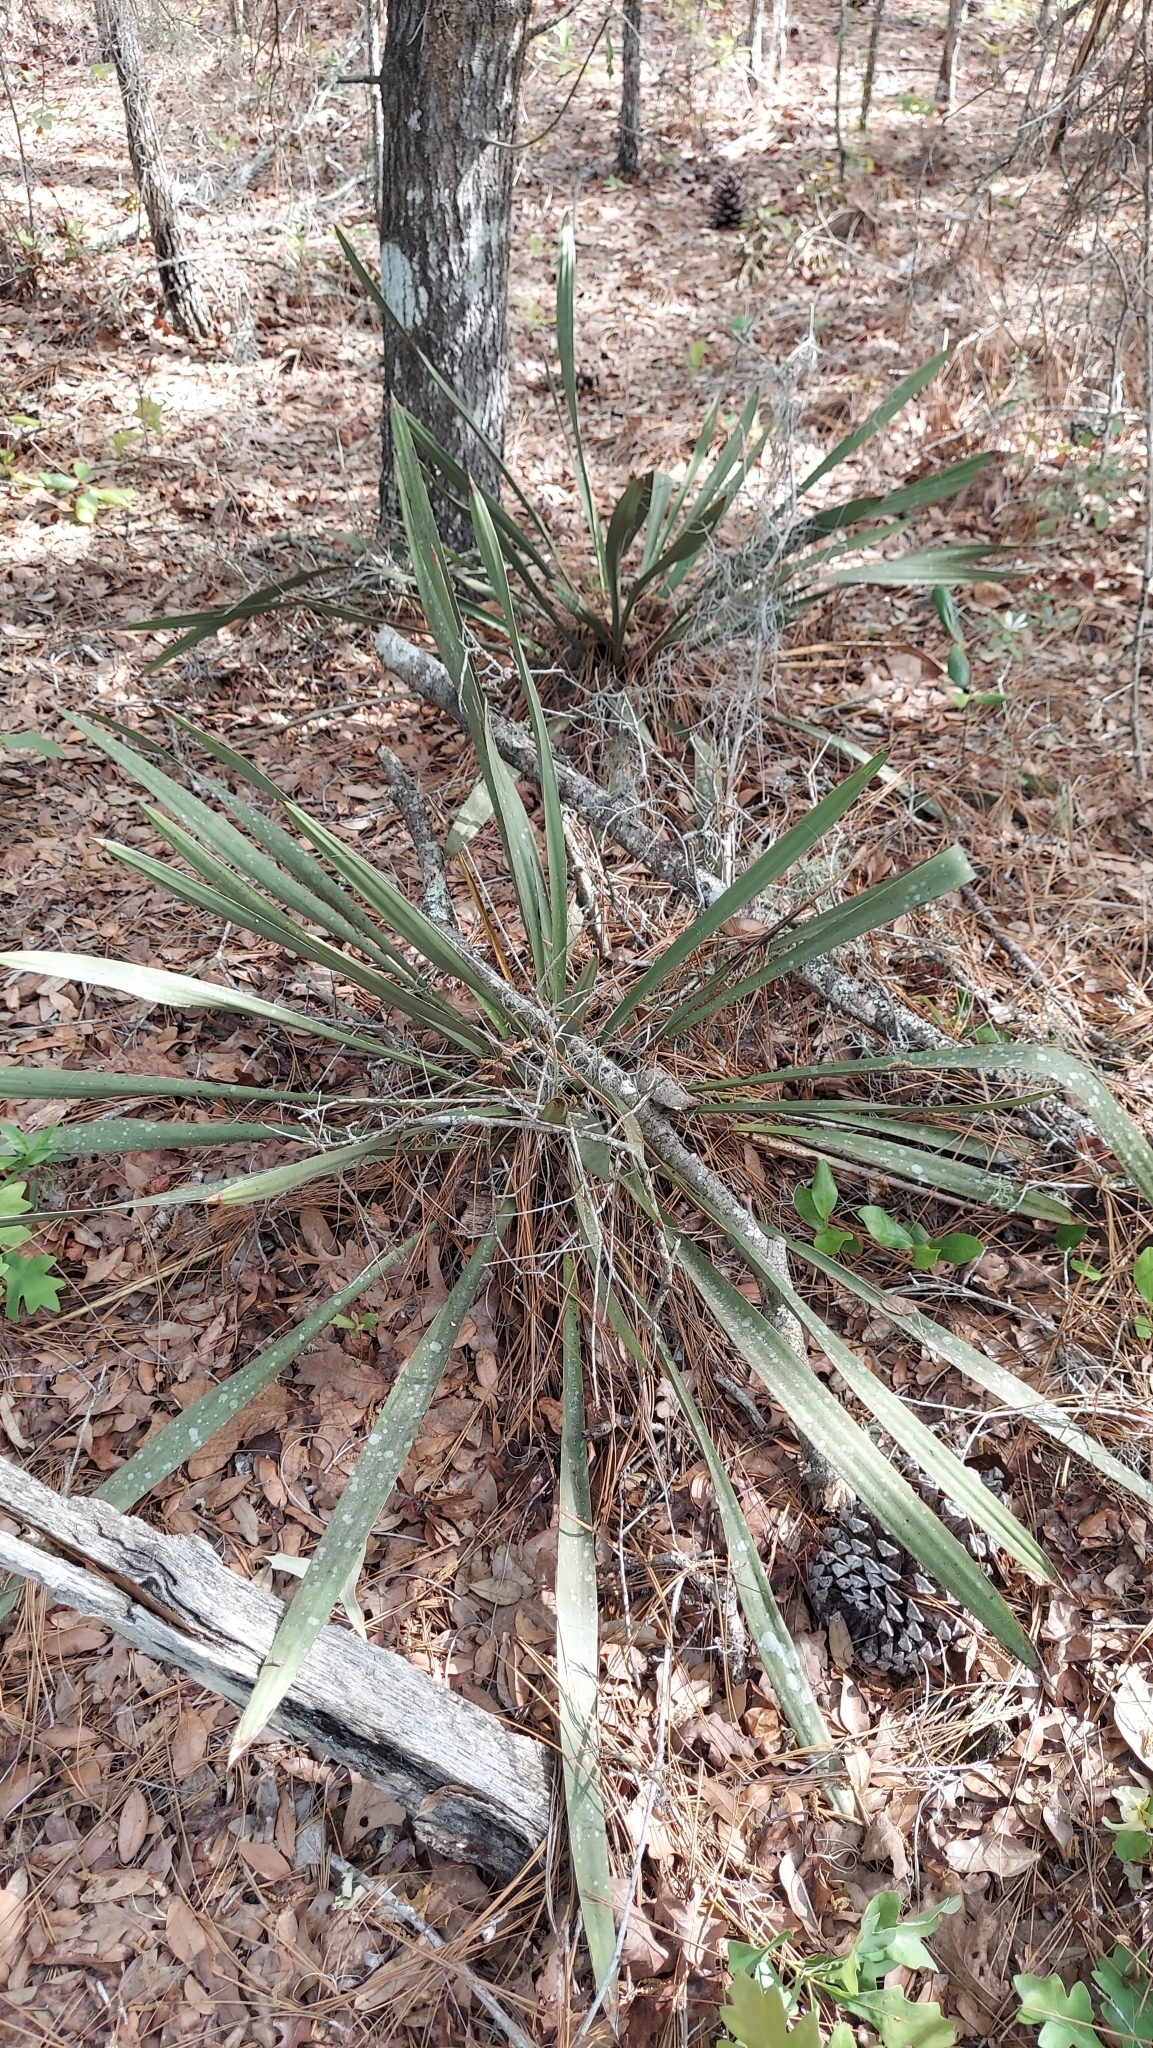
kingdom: Plantae
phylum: Tracheophyta
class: Liliopsida
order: Asparagales
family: Asparagaceae
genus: Yucca
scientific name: Yucca filamentosa
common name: Adam's-needle
